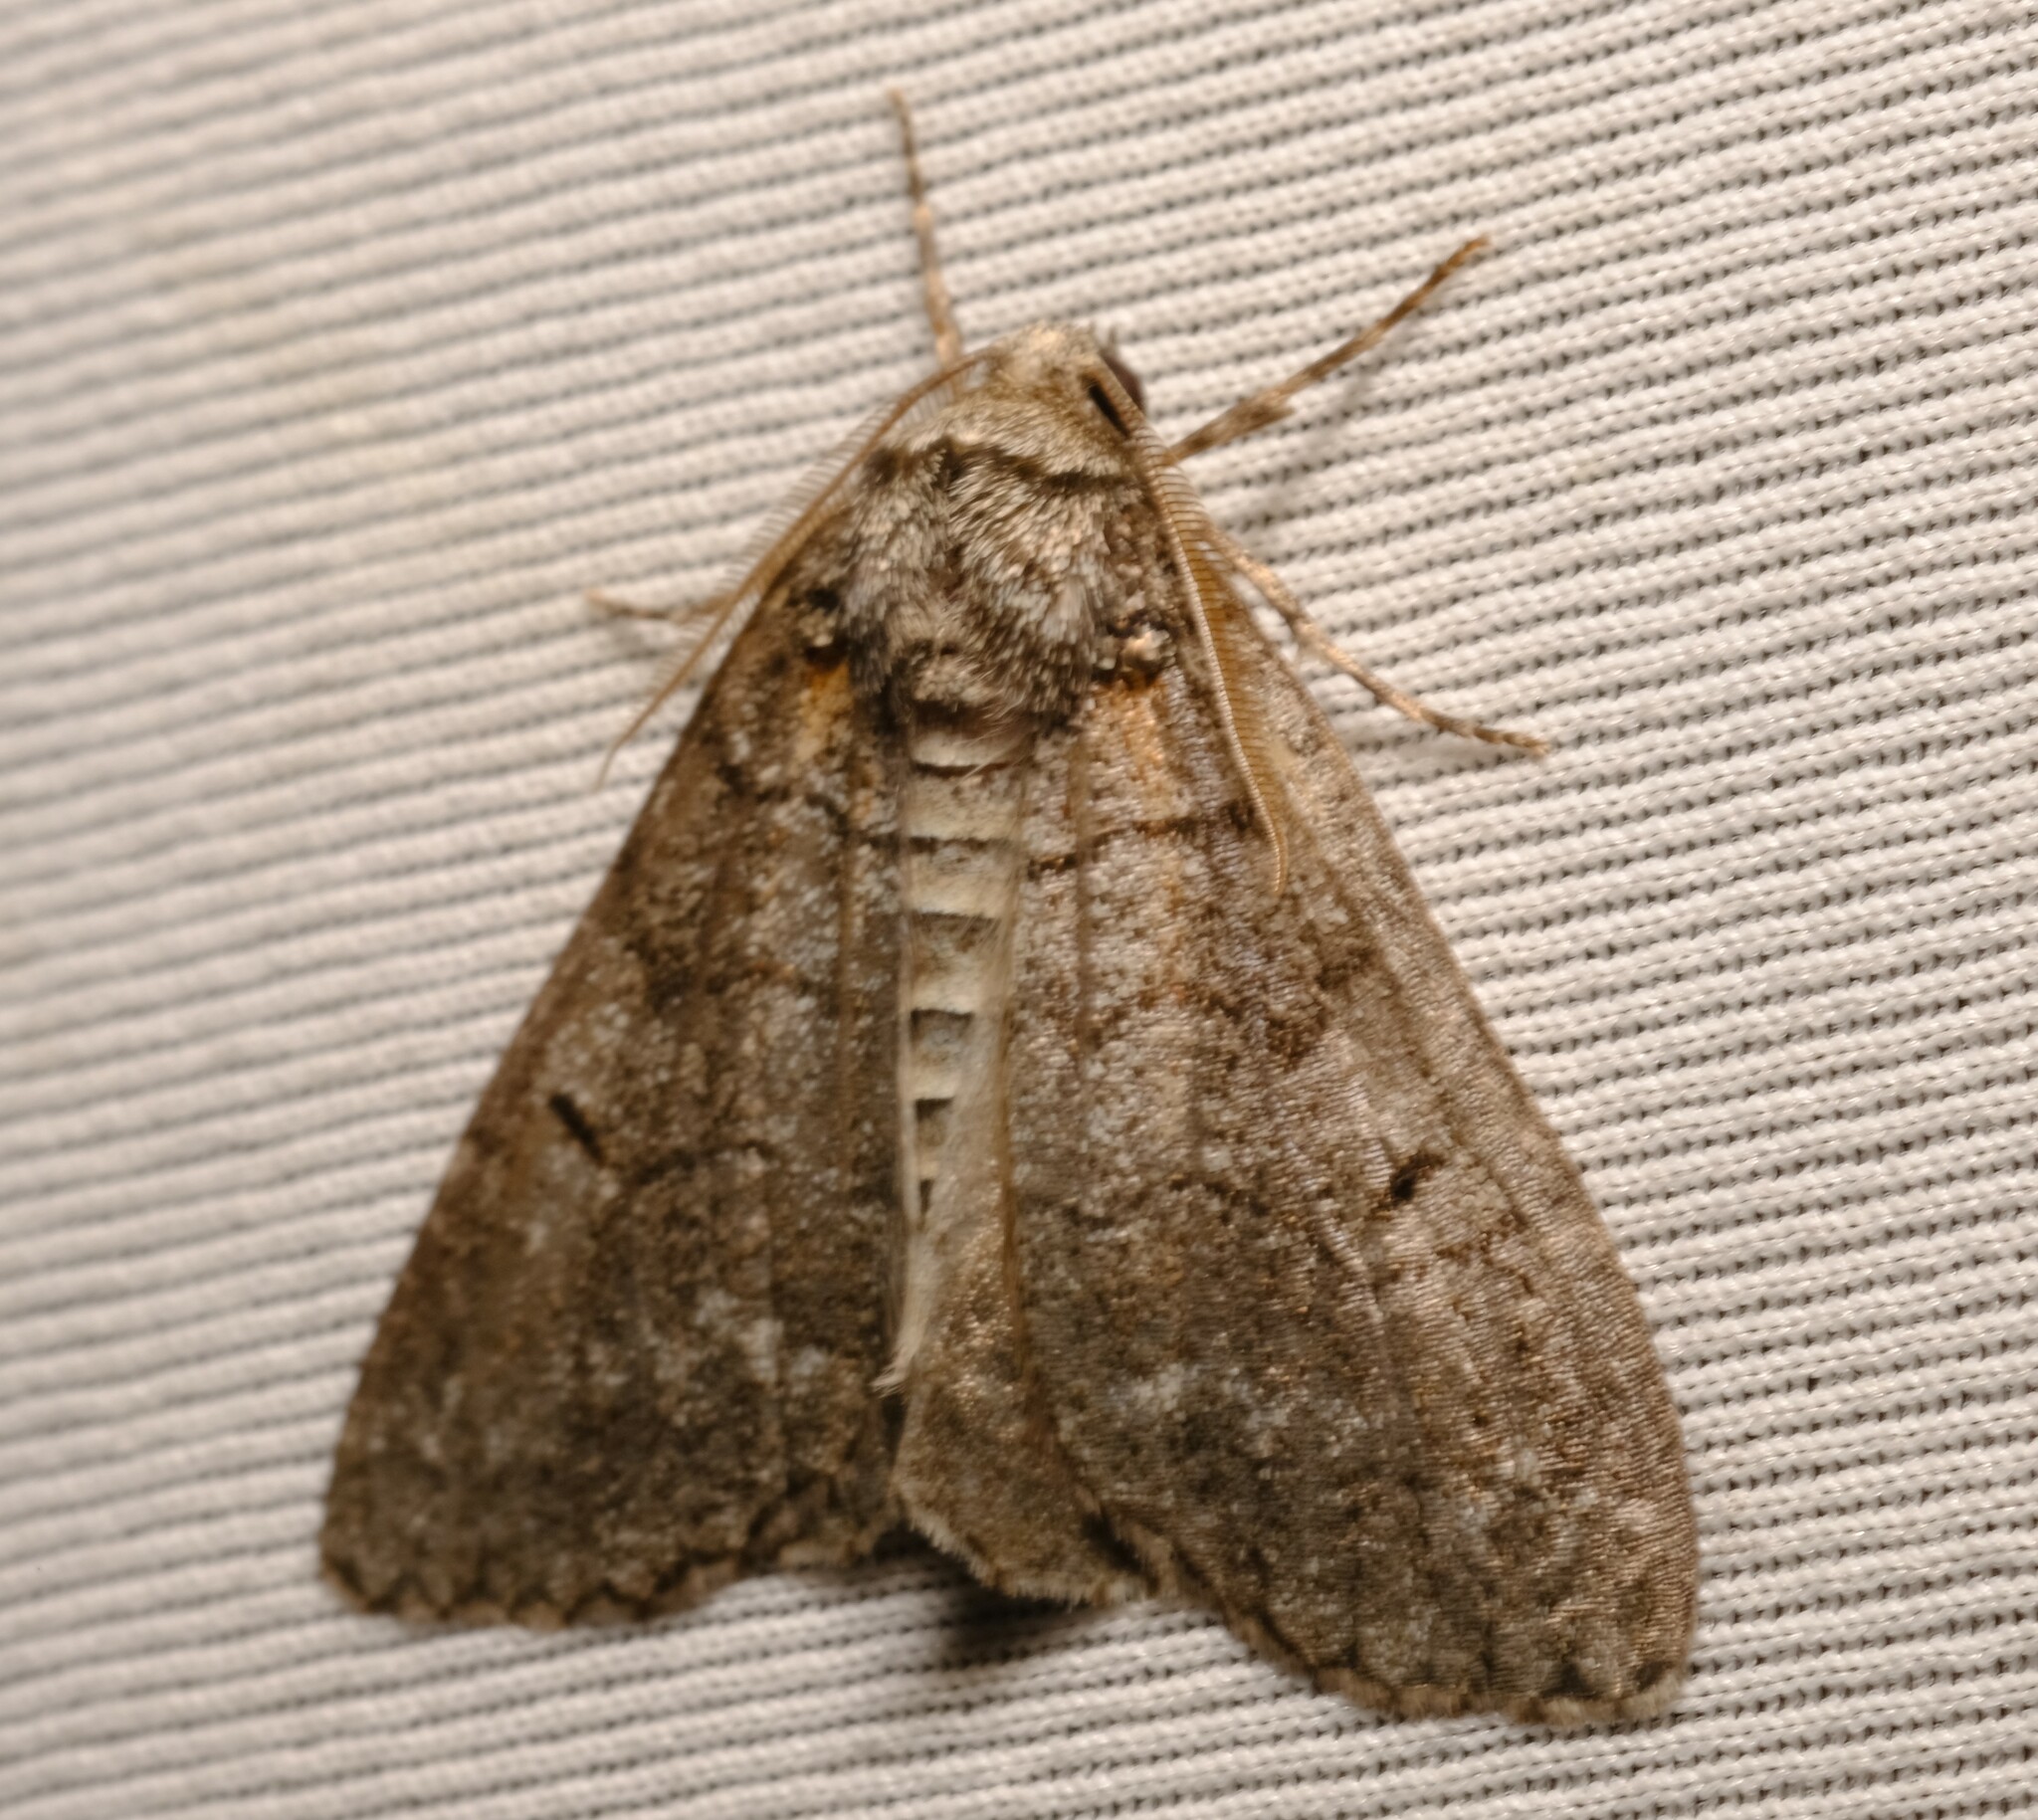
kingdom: Animalia
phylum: Arthropoda
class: Insecta
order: Lepidoptera
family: Geometridae
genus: Smyriodes
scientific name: Smyriodes trigramma
